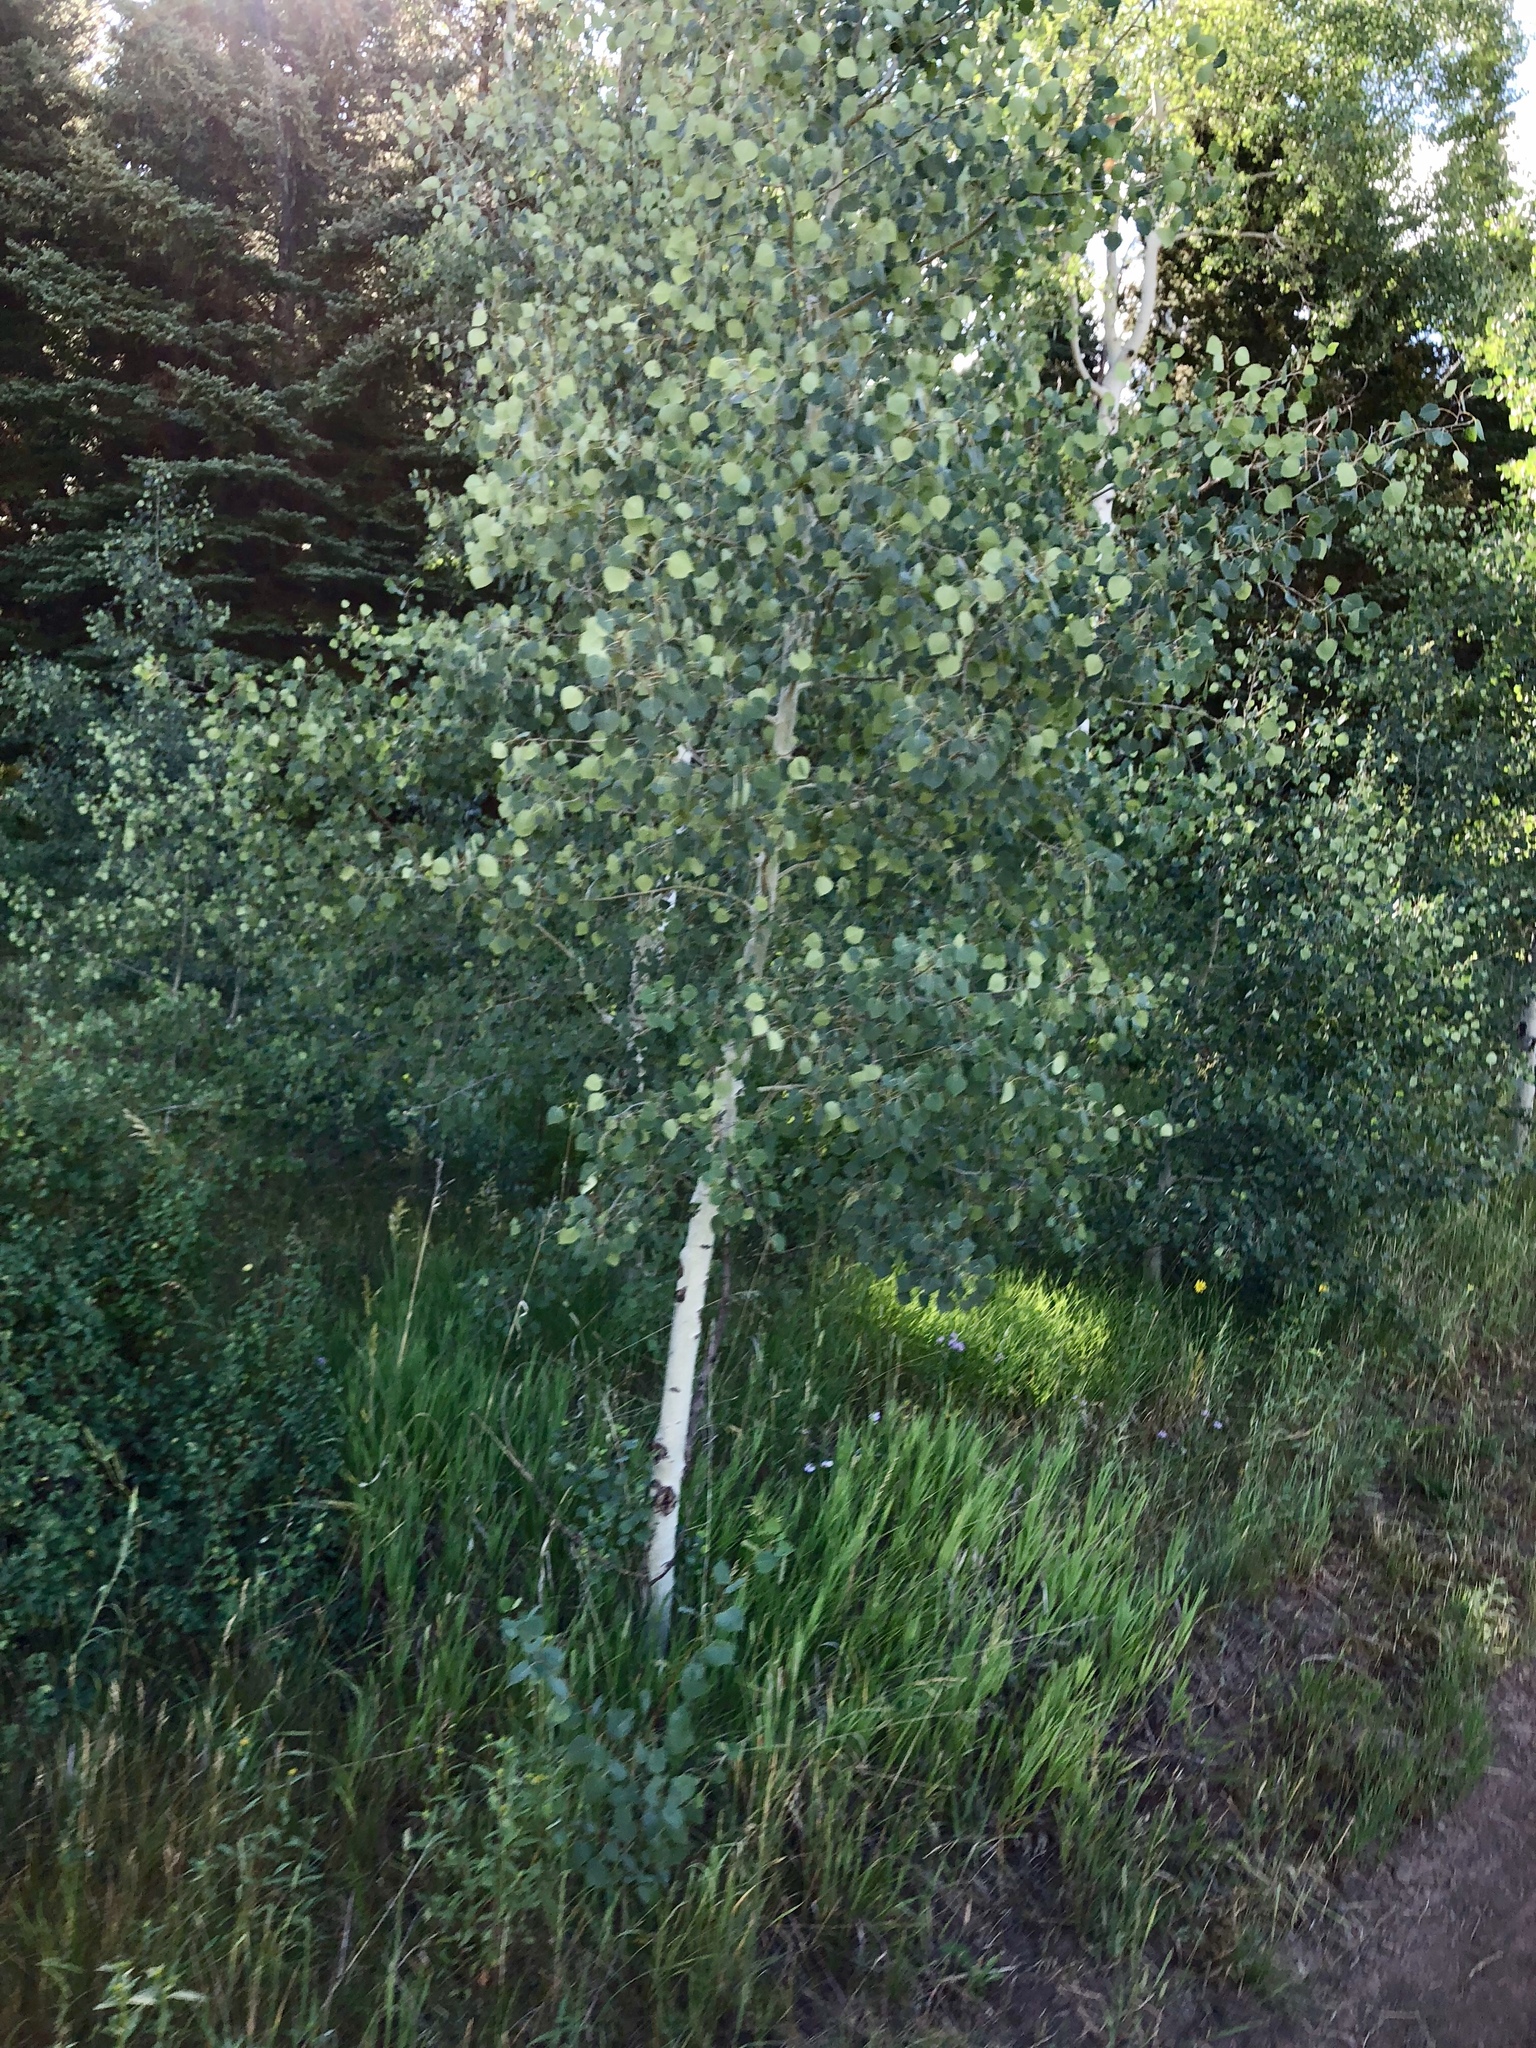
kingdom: Plantae
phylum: Tracheophyta
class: Magnoliopsida
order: Malpighiales
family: Salicaceae
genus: Populus
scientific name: Populus tremuloides
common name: Quaking aspen
